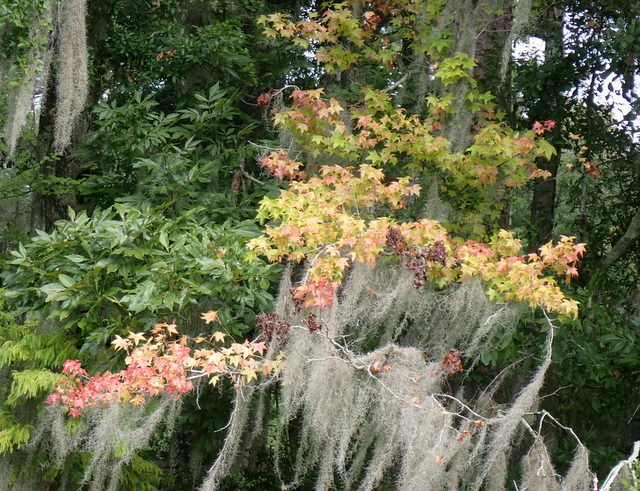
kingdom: Plantae
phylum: Tracheophyta
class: Magnoliopsida
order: Saxifragales
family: Altingiaceae
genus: Liquidambar
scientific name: Liquidambar styraciflua
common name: Sweet gum
